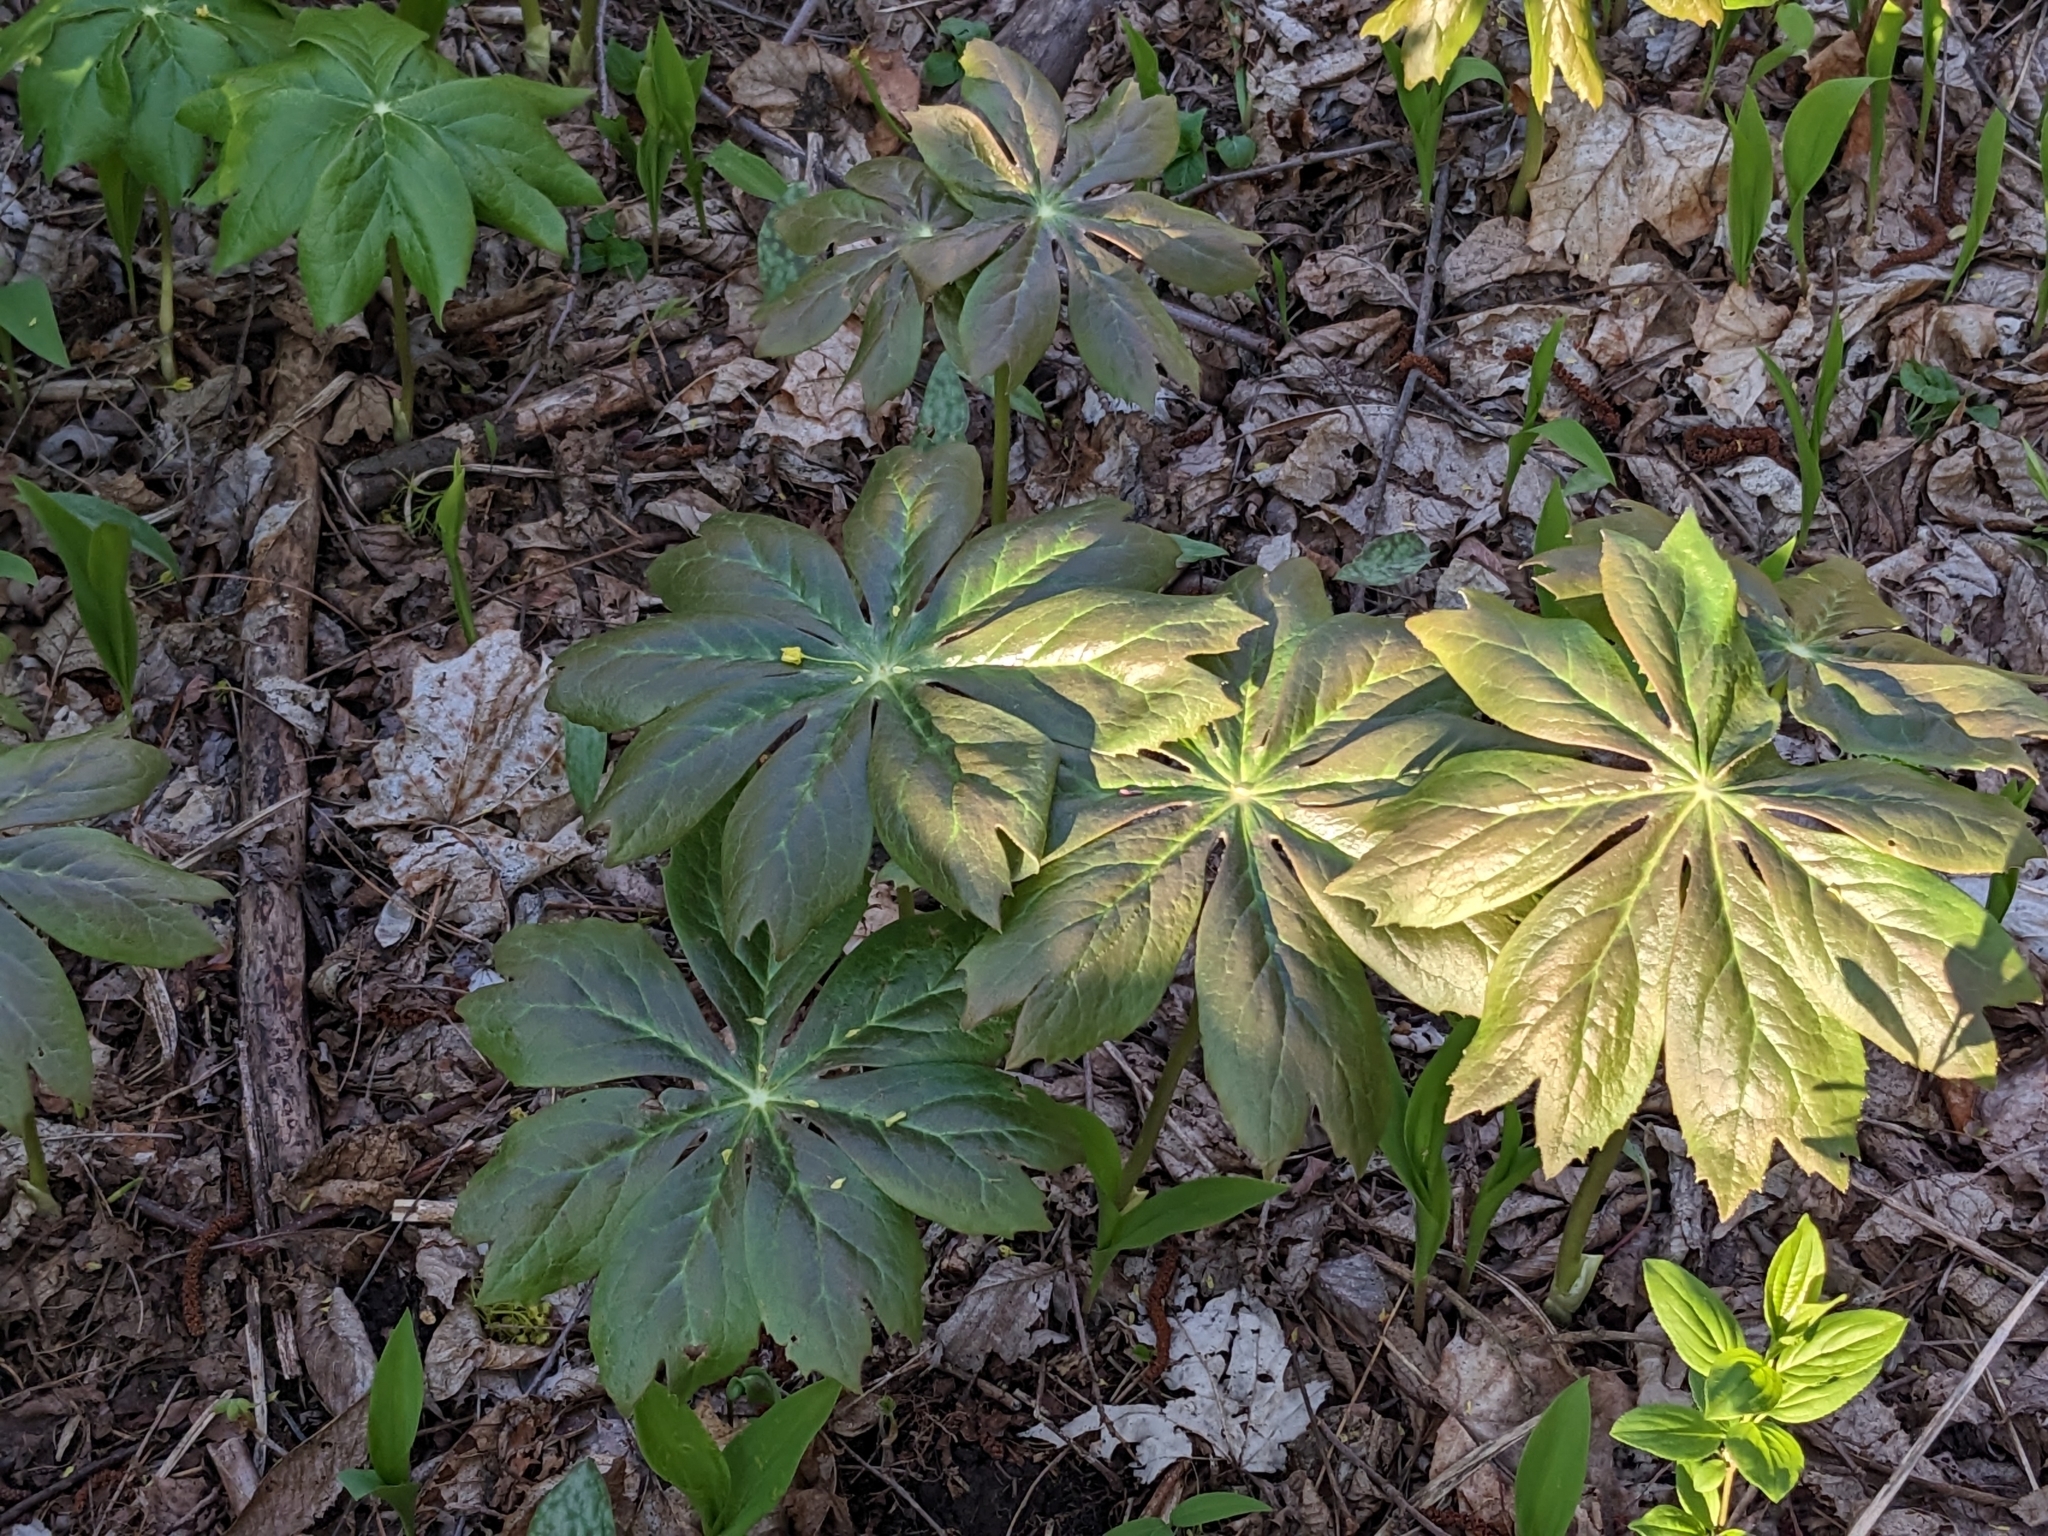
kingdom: Plantae
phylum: Tracheophyta
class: Magnoliopsida
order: Ranunculales
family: Berberidaceae
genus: Podophyllum
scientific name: Podophyllum peltatum
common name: Wild mandrake
